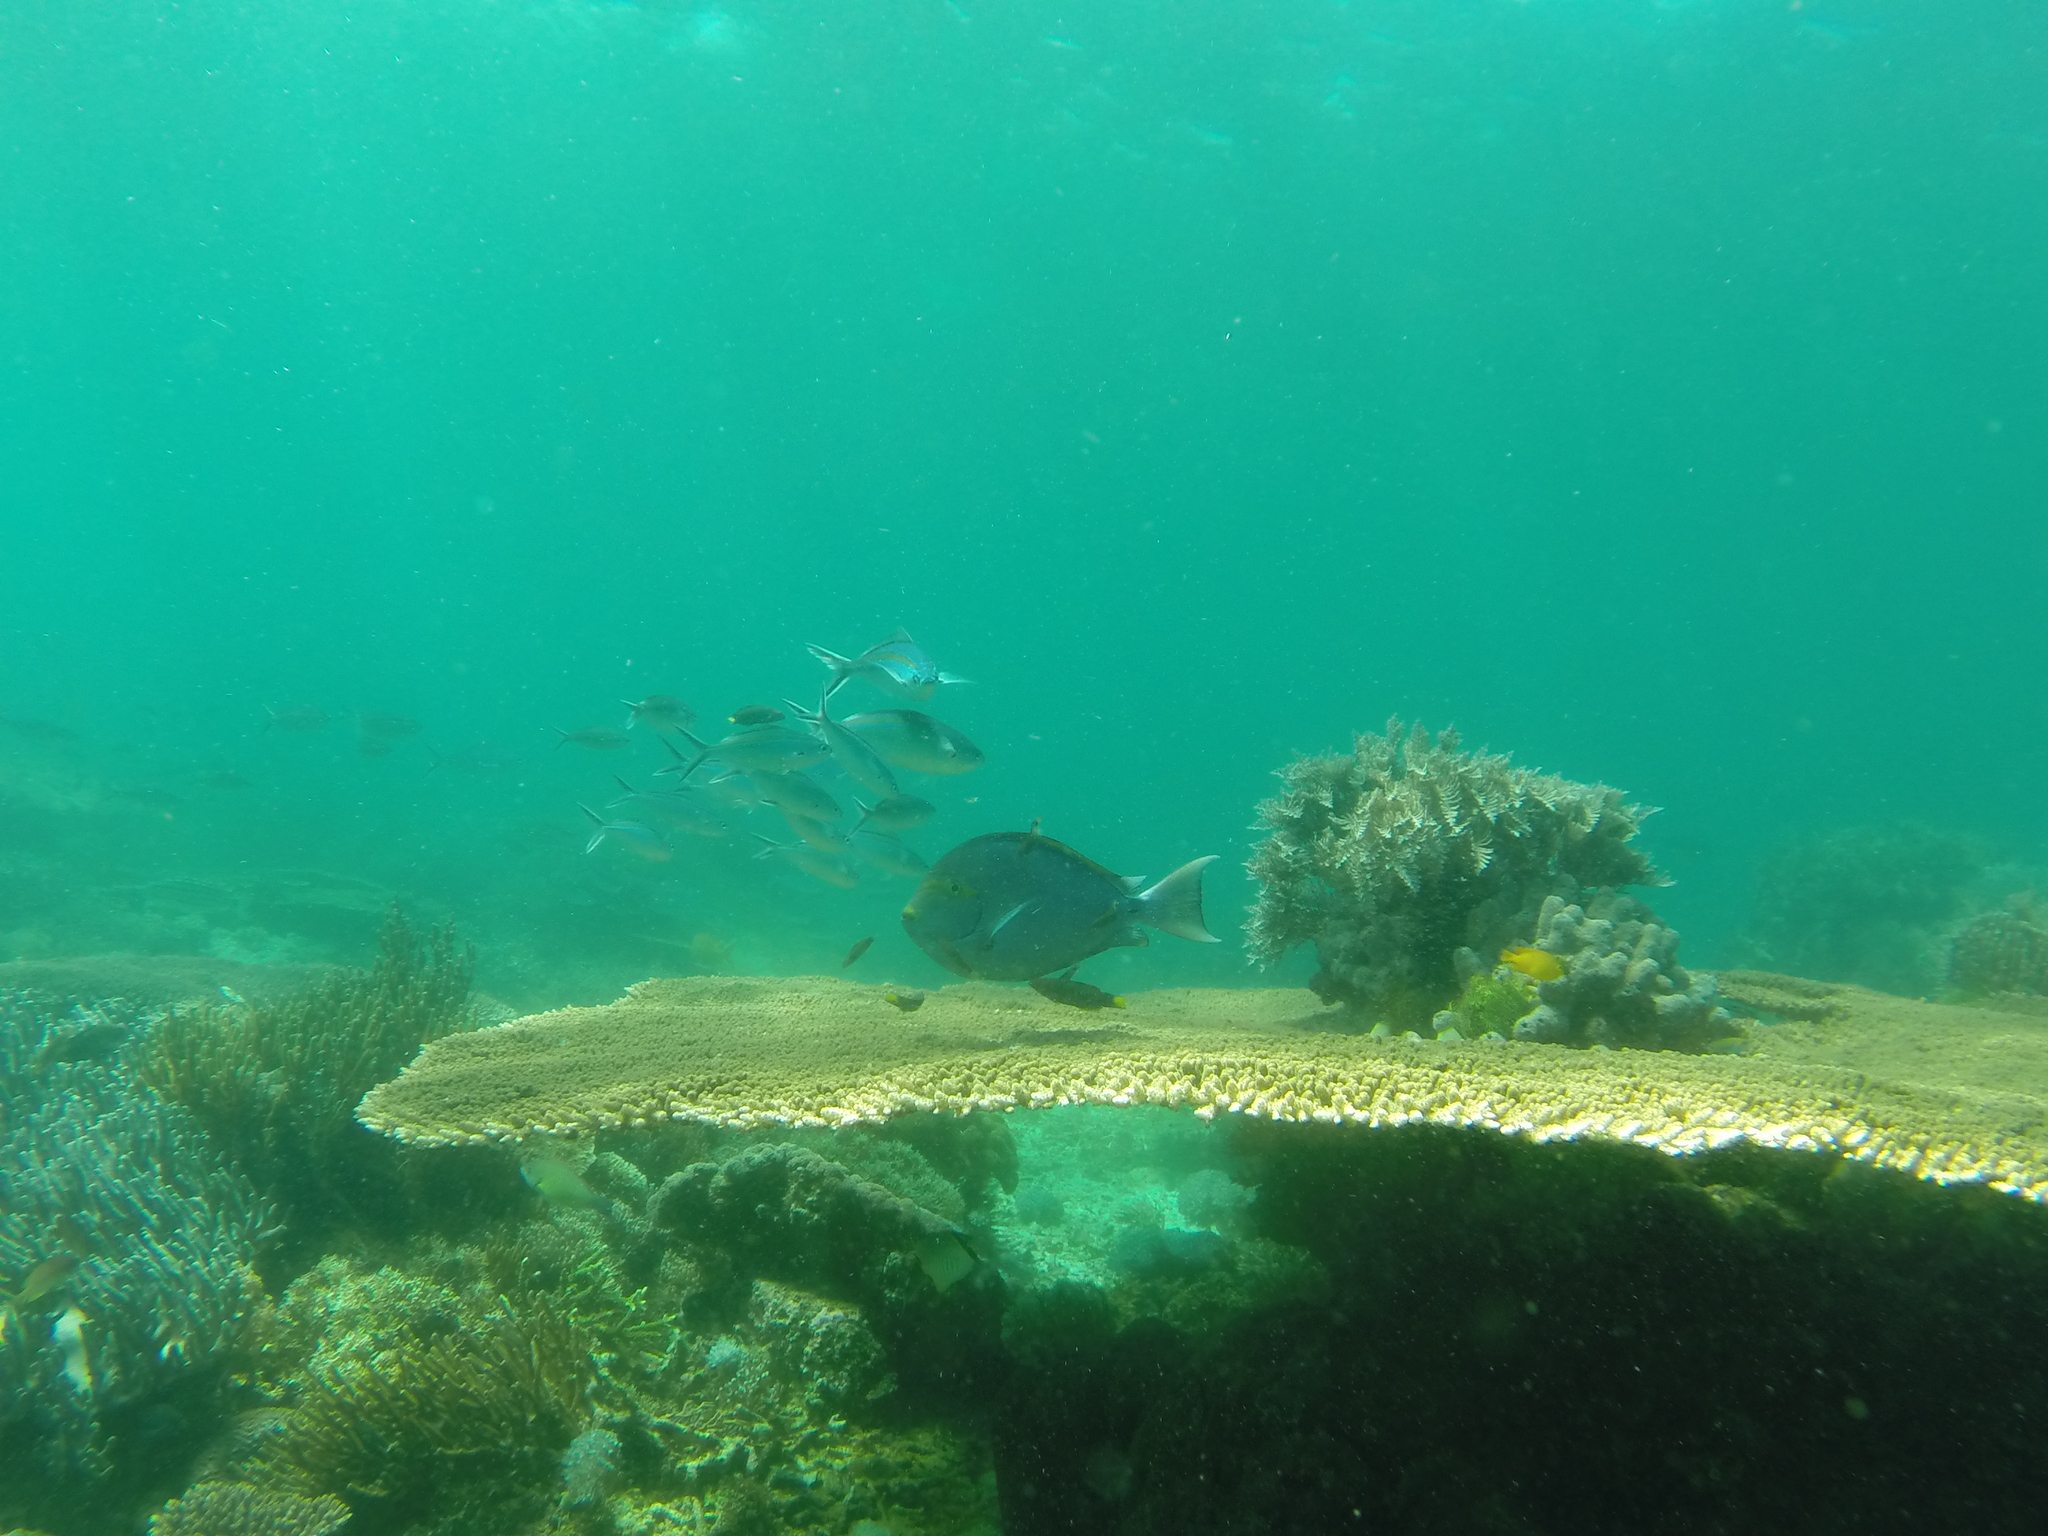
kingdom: Animalia
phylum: Cnidaria
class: Anthozoa
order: Scleractinia
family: Acroporidae
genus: Acropora
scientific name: Acropora hyacinthus
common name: Hyacinth table coral
